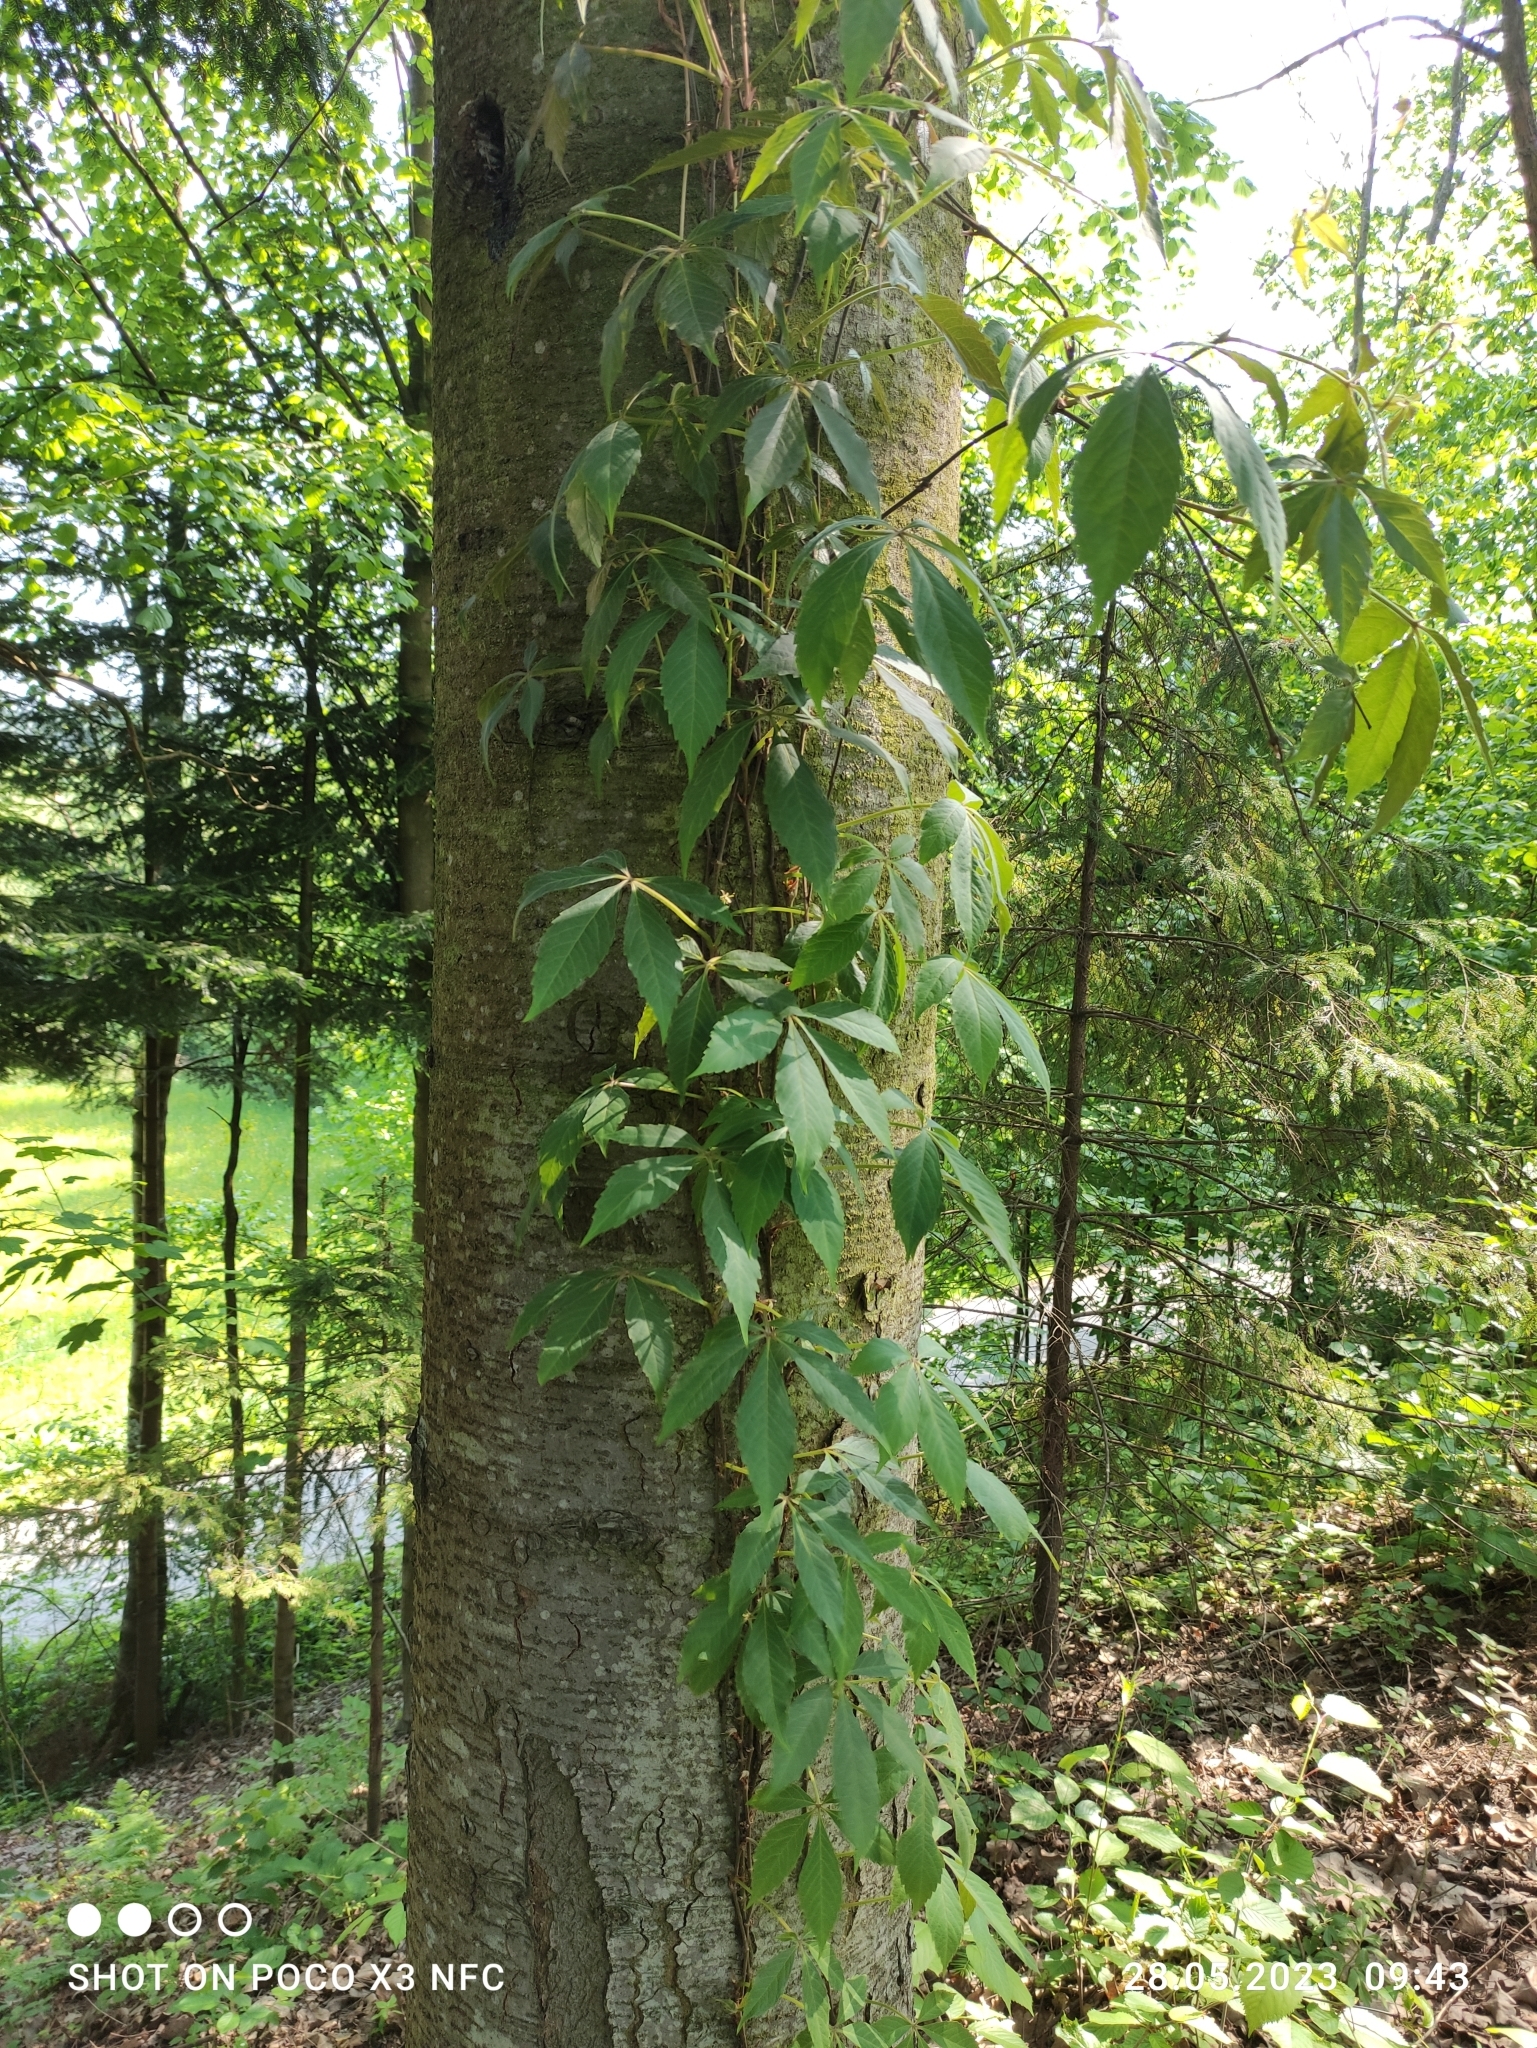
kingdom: Plantae
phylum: Tracheophyta
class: Magnoliopsida
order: Vitales
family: Vitaceae
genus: Parthenocissus
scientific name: Parthenocissus quinquefolia
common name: Virginia-creeper
